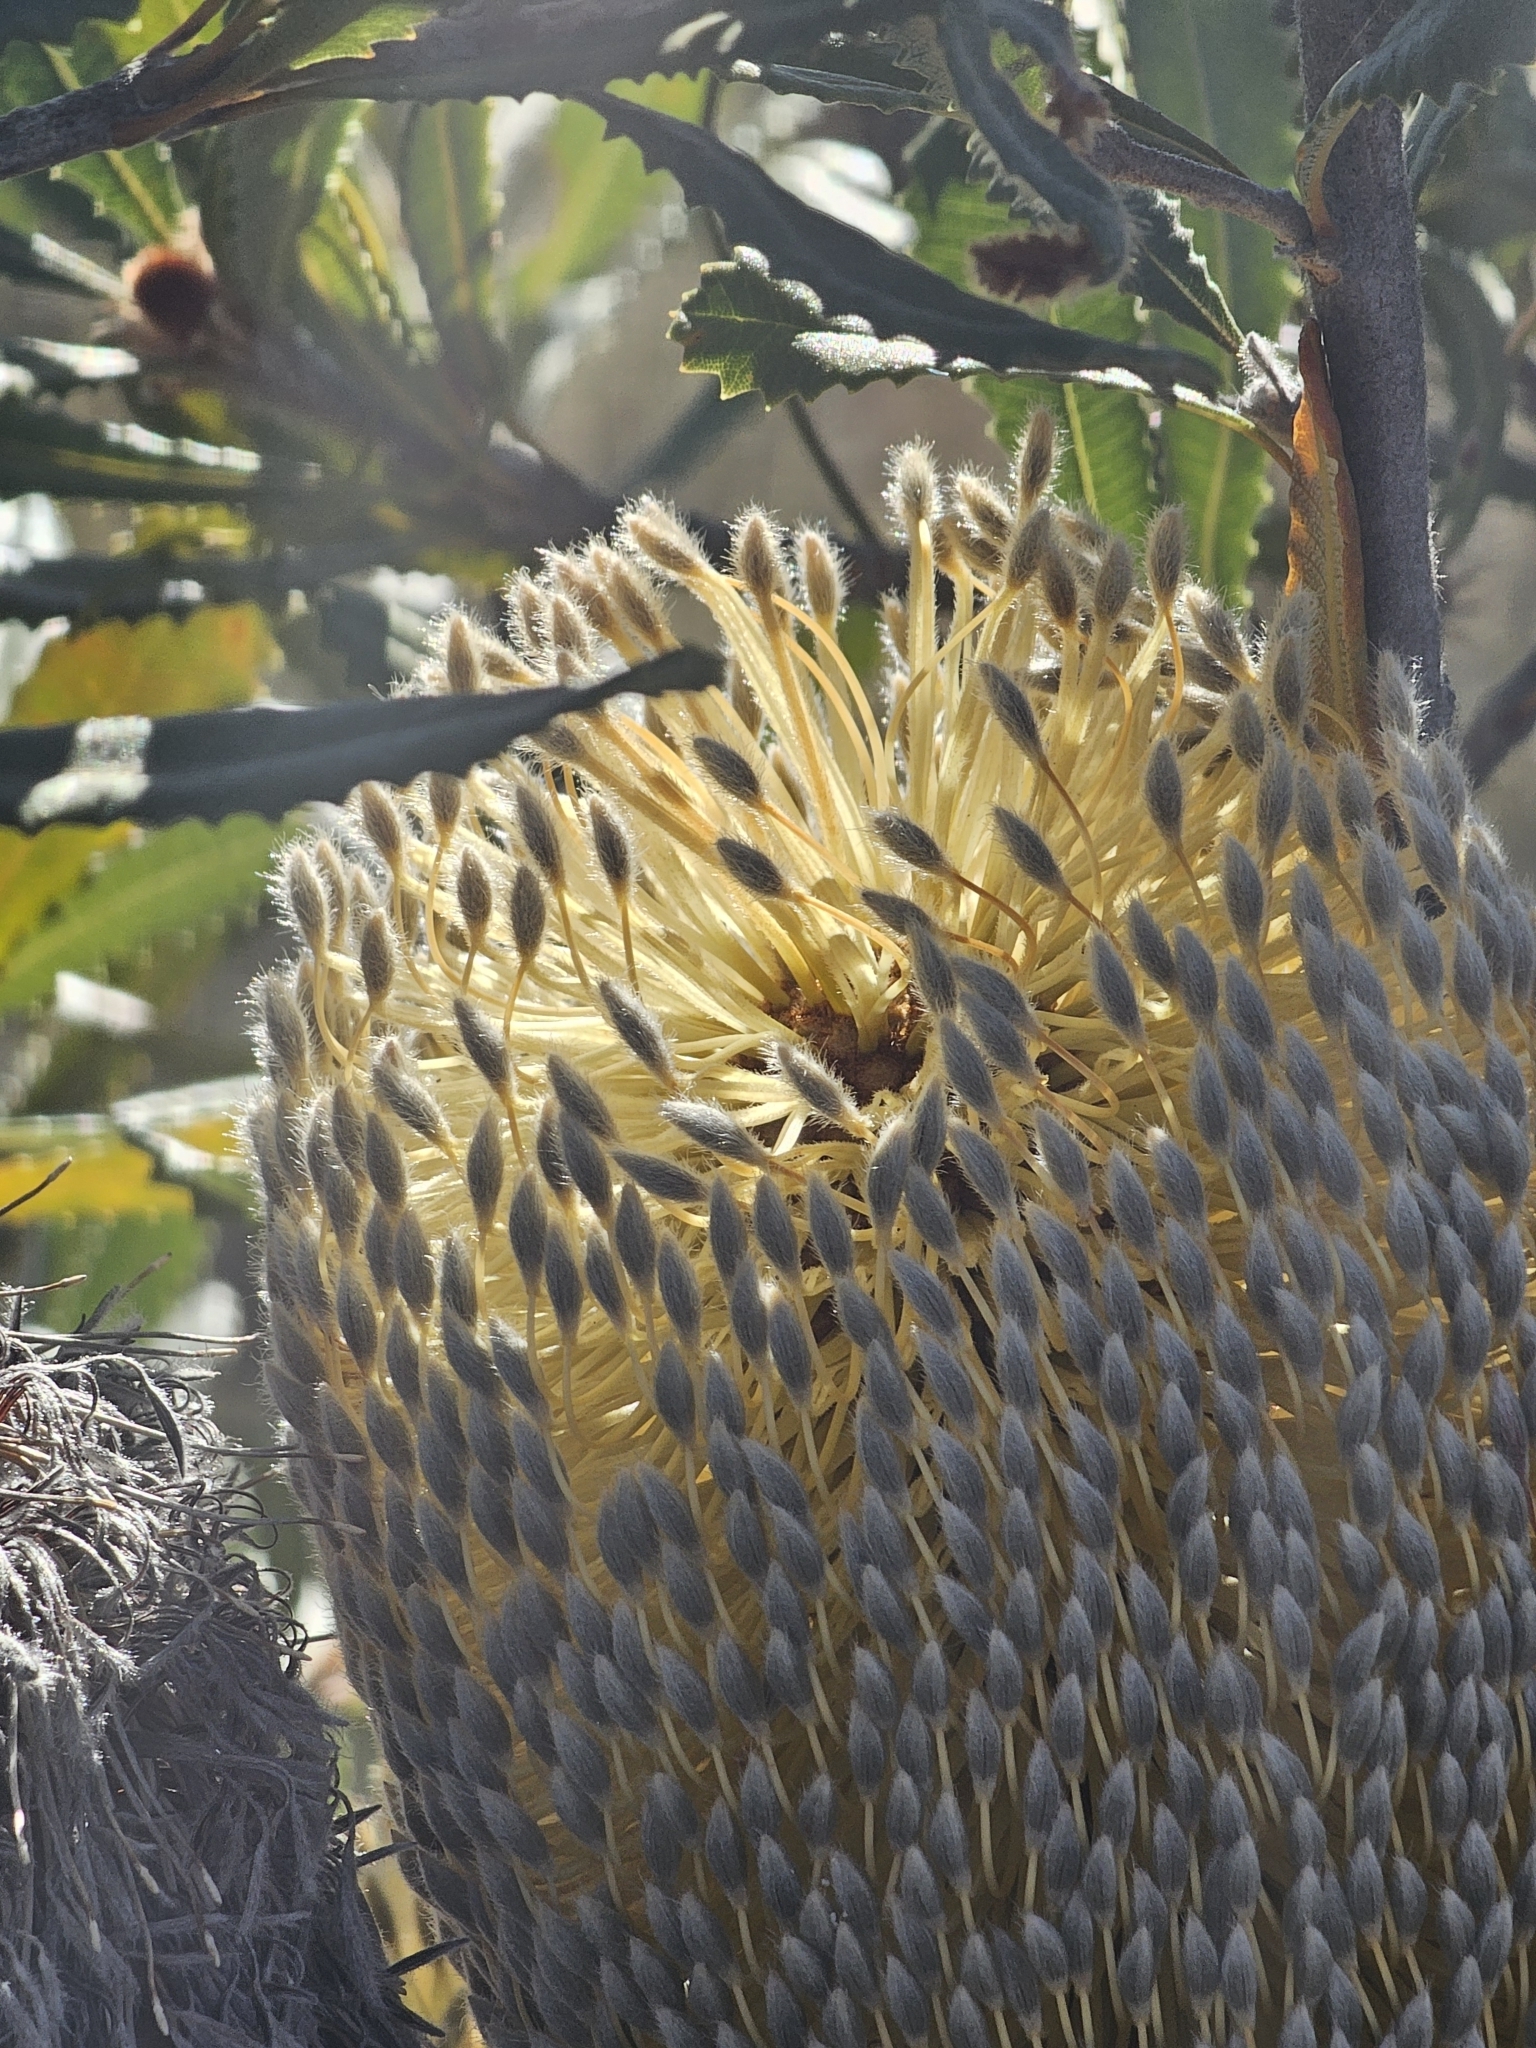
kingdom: Plantae
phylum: Tracheophyta
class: Magnoliopsida
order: Proteales
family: Proteaceae
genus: Banksia
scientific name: Banksia ornata
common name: Desert banksia
